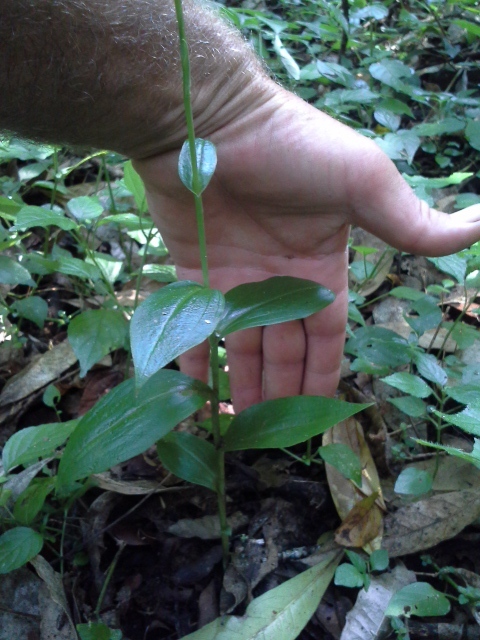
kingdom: Plantae
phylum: Tracheophyta
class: Liliopsida
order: Asparagales
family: Orchidaceae
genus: Habenaria
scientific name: Habenaria petitiana
